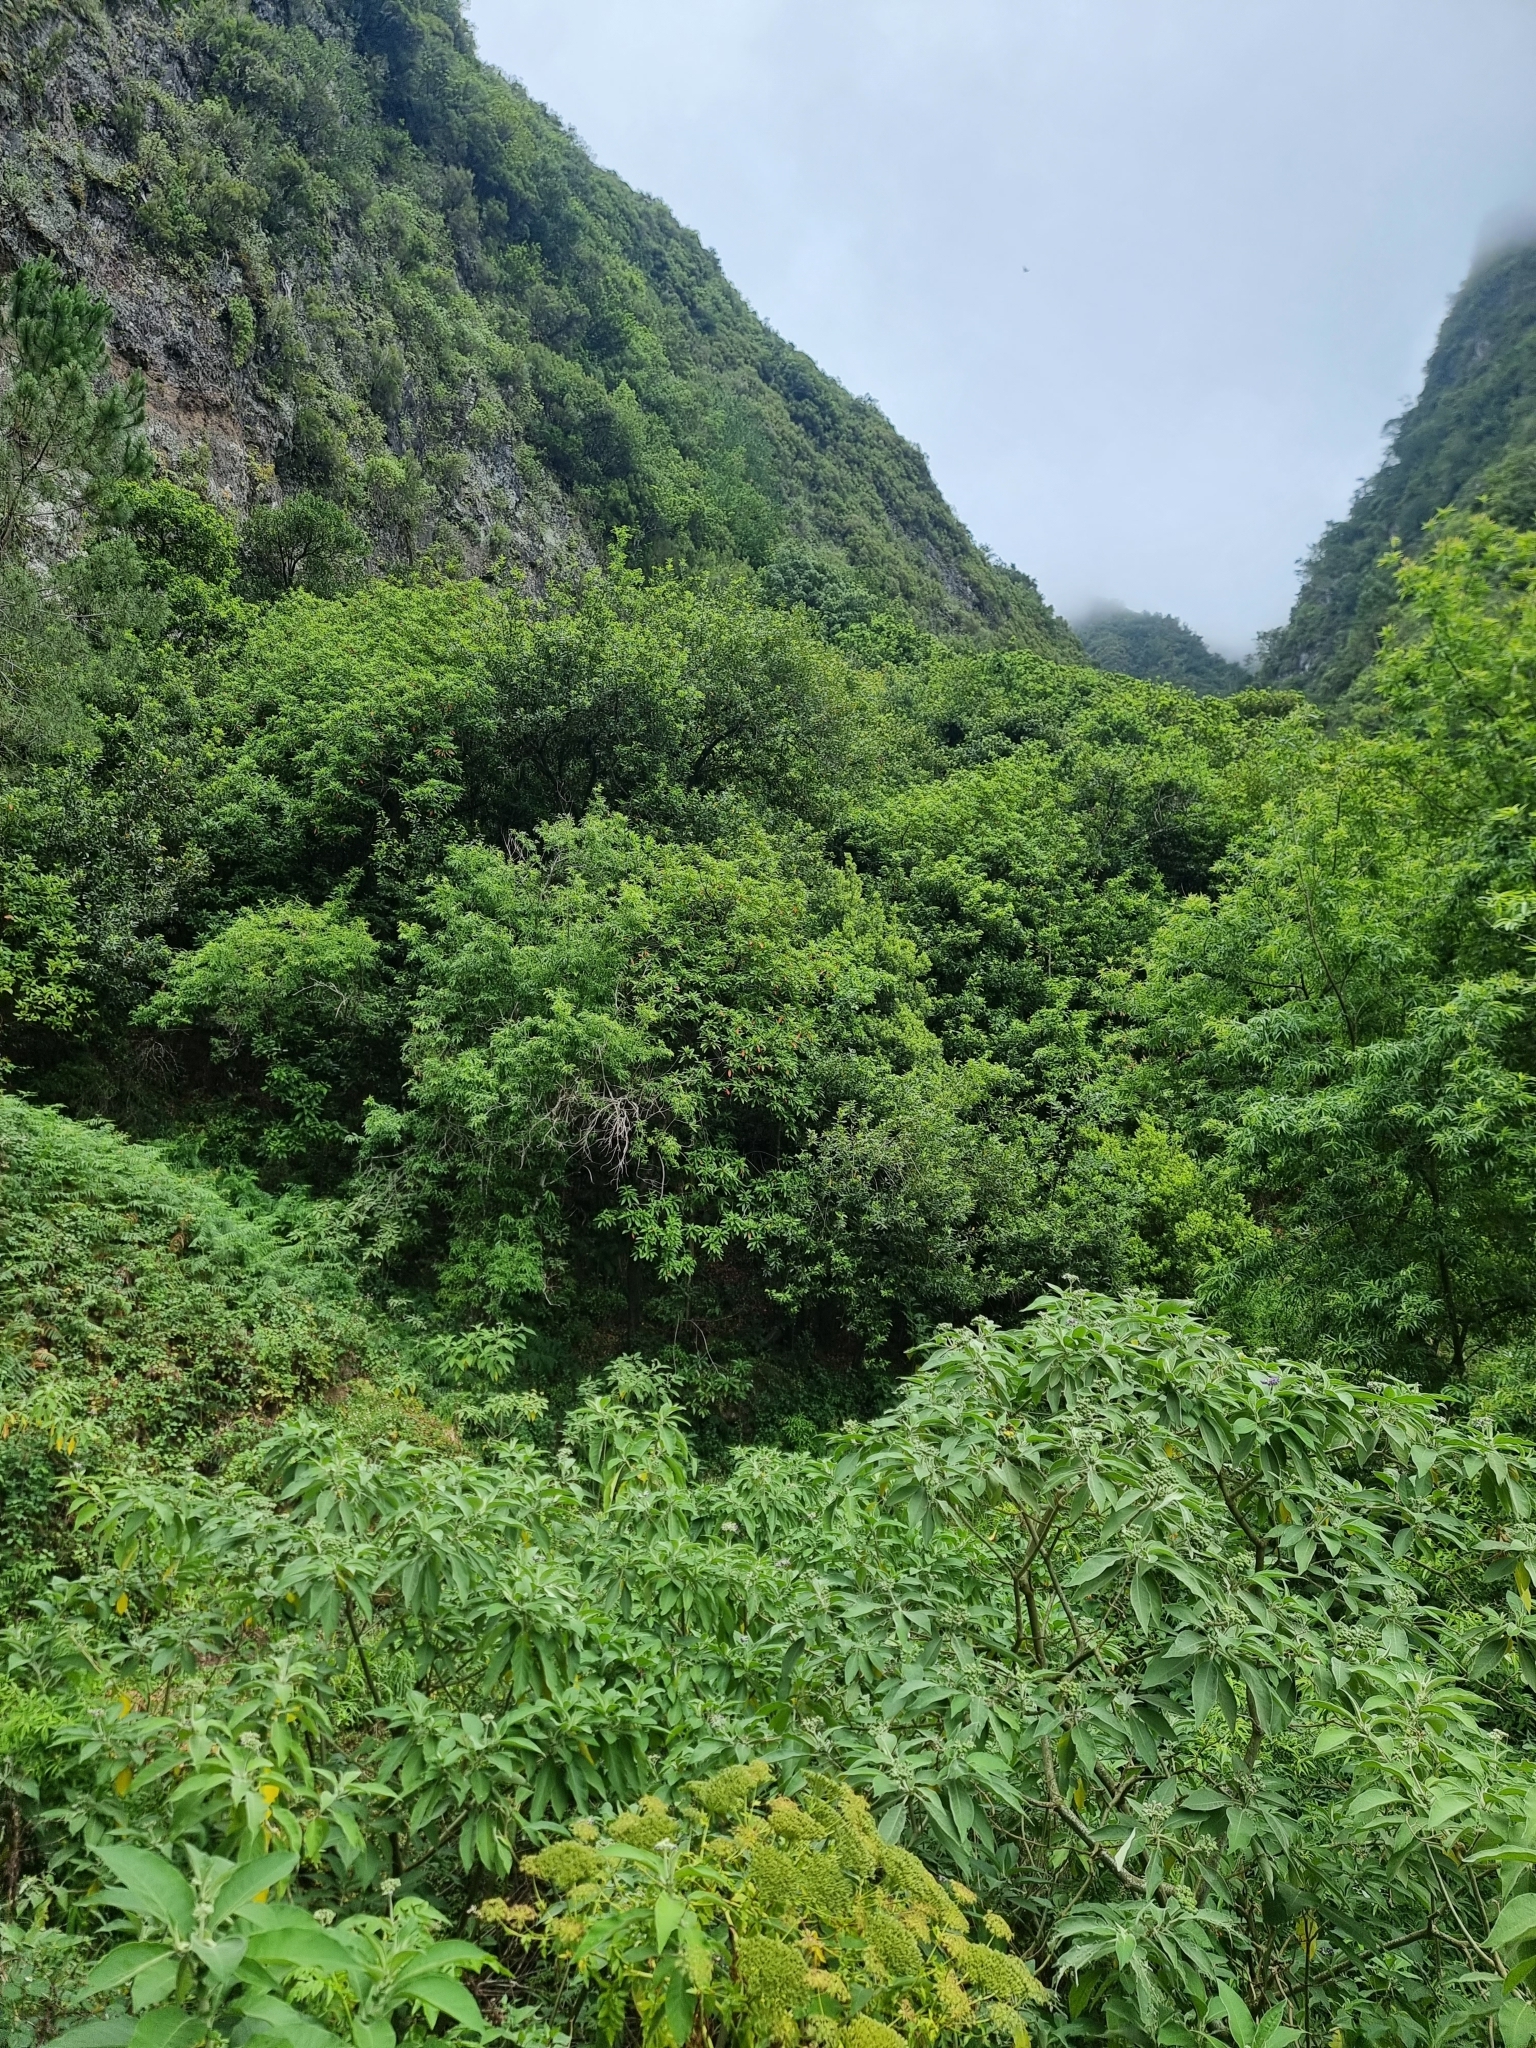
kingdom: Plantae
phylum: Tracheophyta
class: Magnoliopsida
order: Laurales
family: Lauraceae
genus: Persea
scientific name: Persea indica
